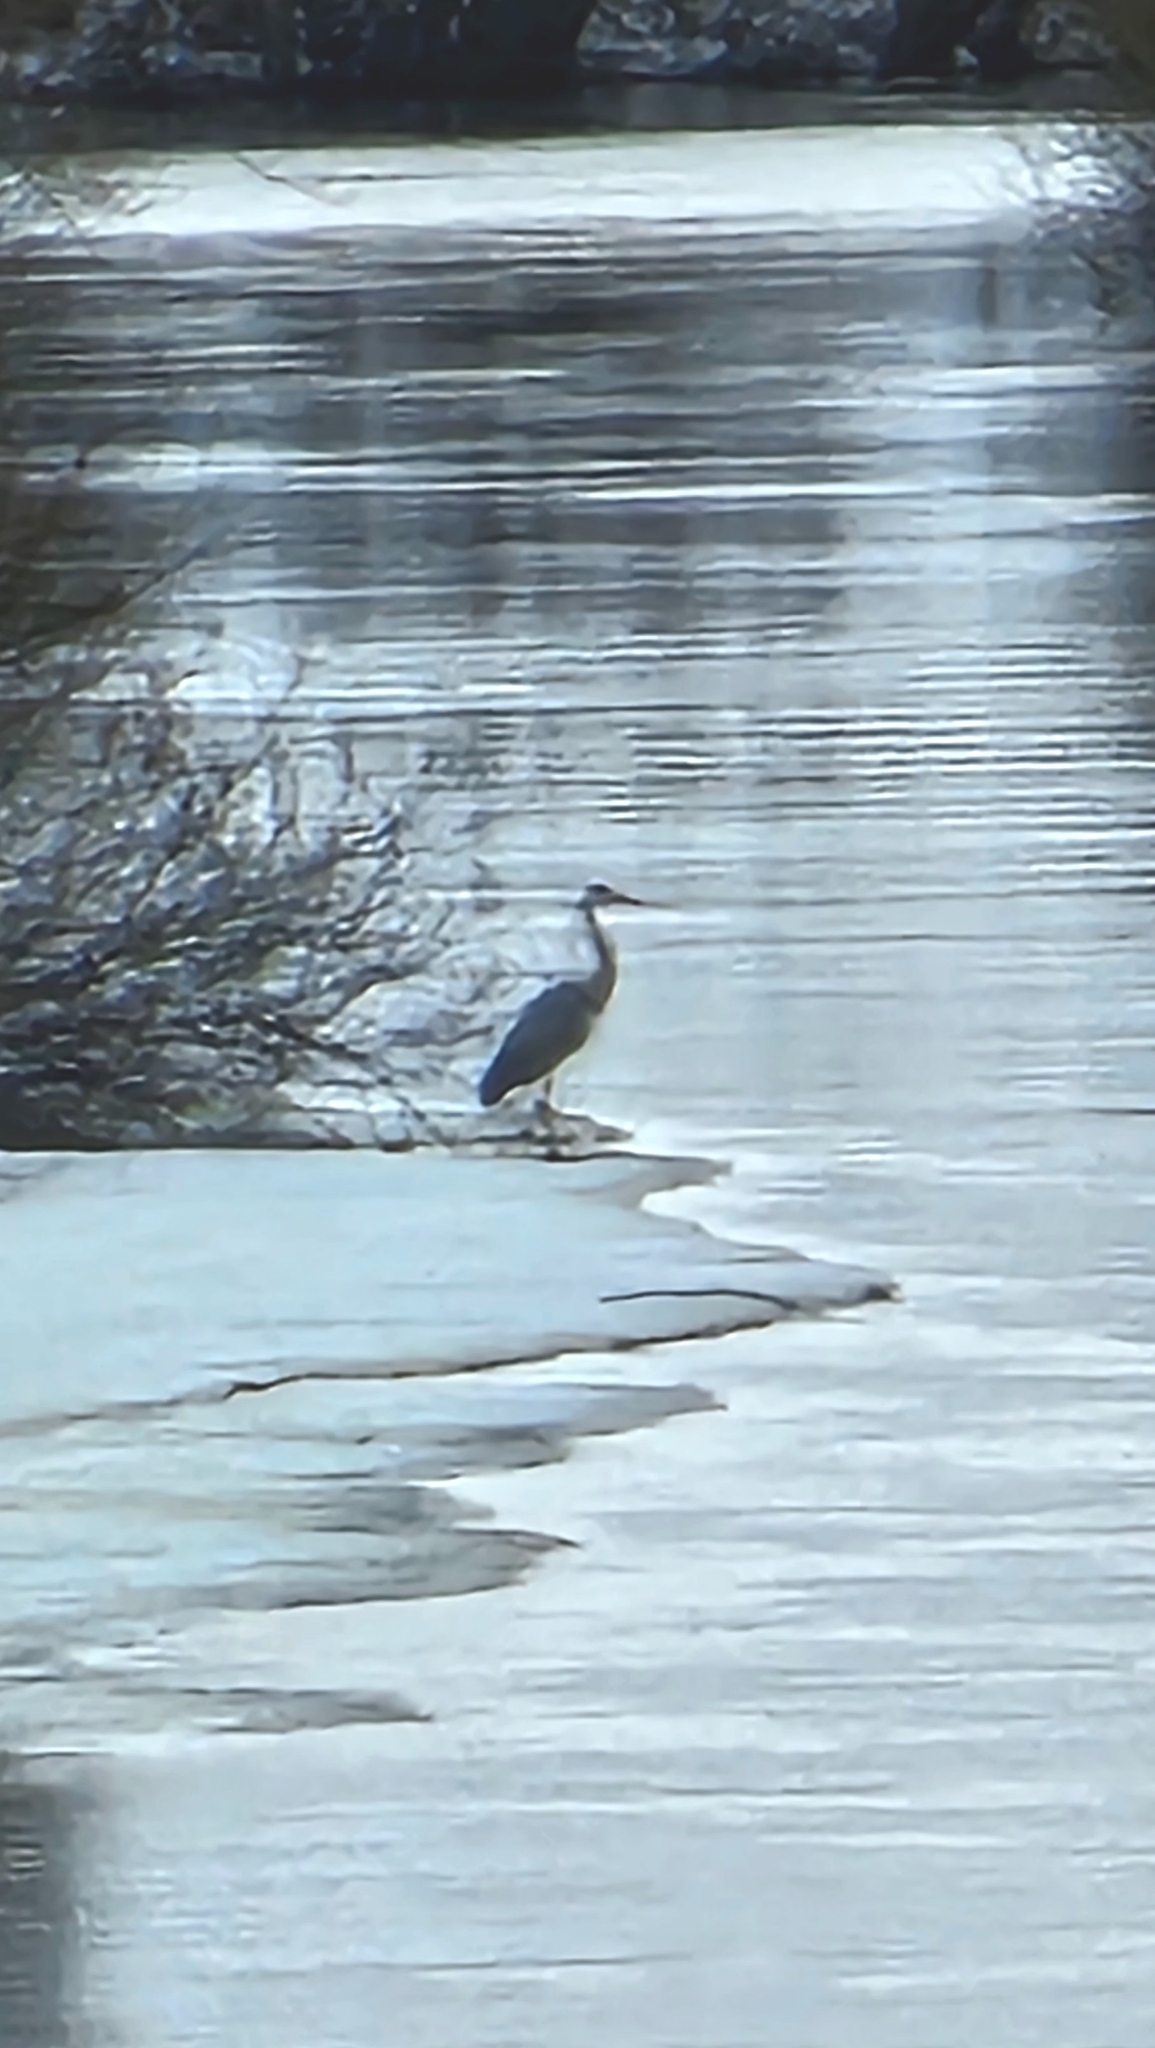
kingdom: Animalia
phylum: Chordata
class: Aves
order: Pelecaniformes
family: Ardeidae
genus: Ardea
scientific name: Ardea cinerea
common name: Grey heron
